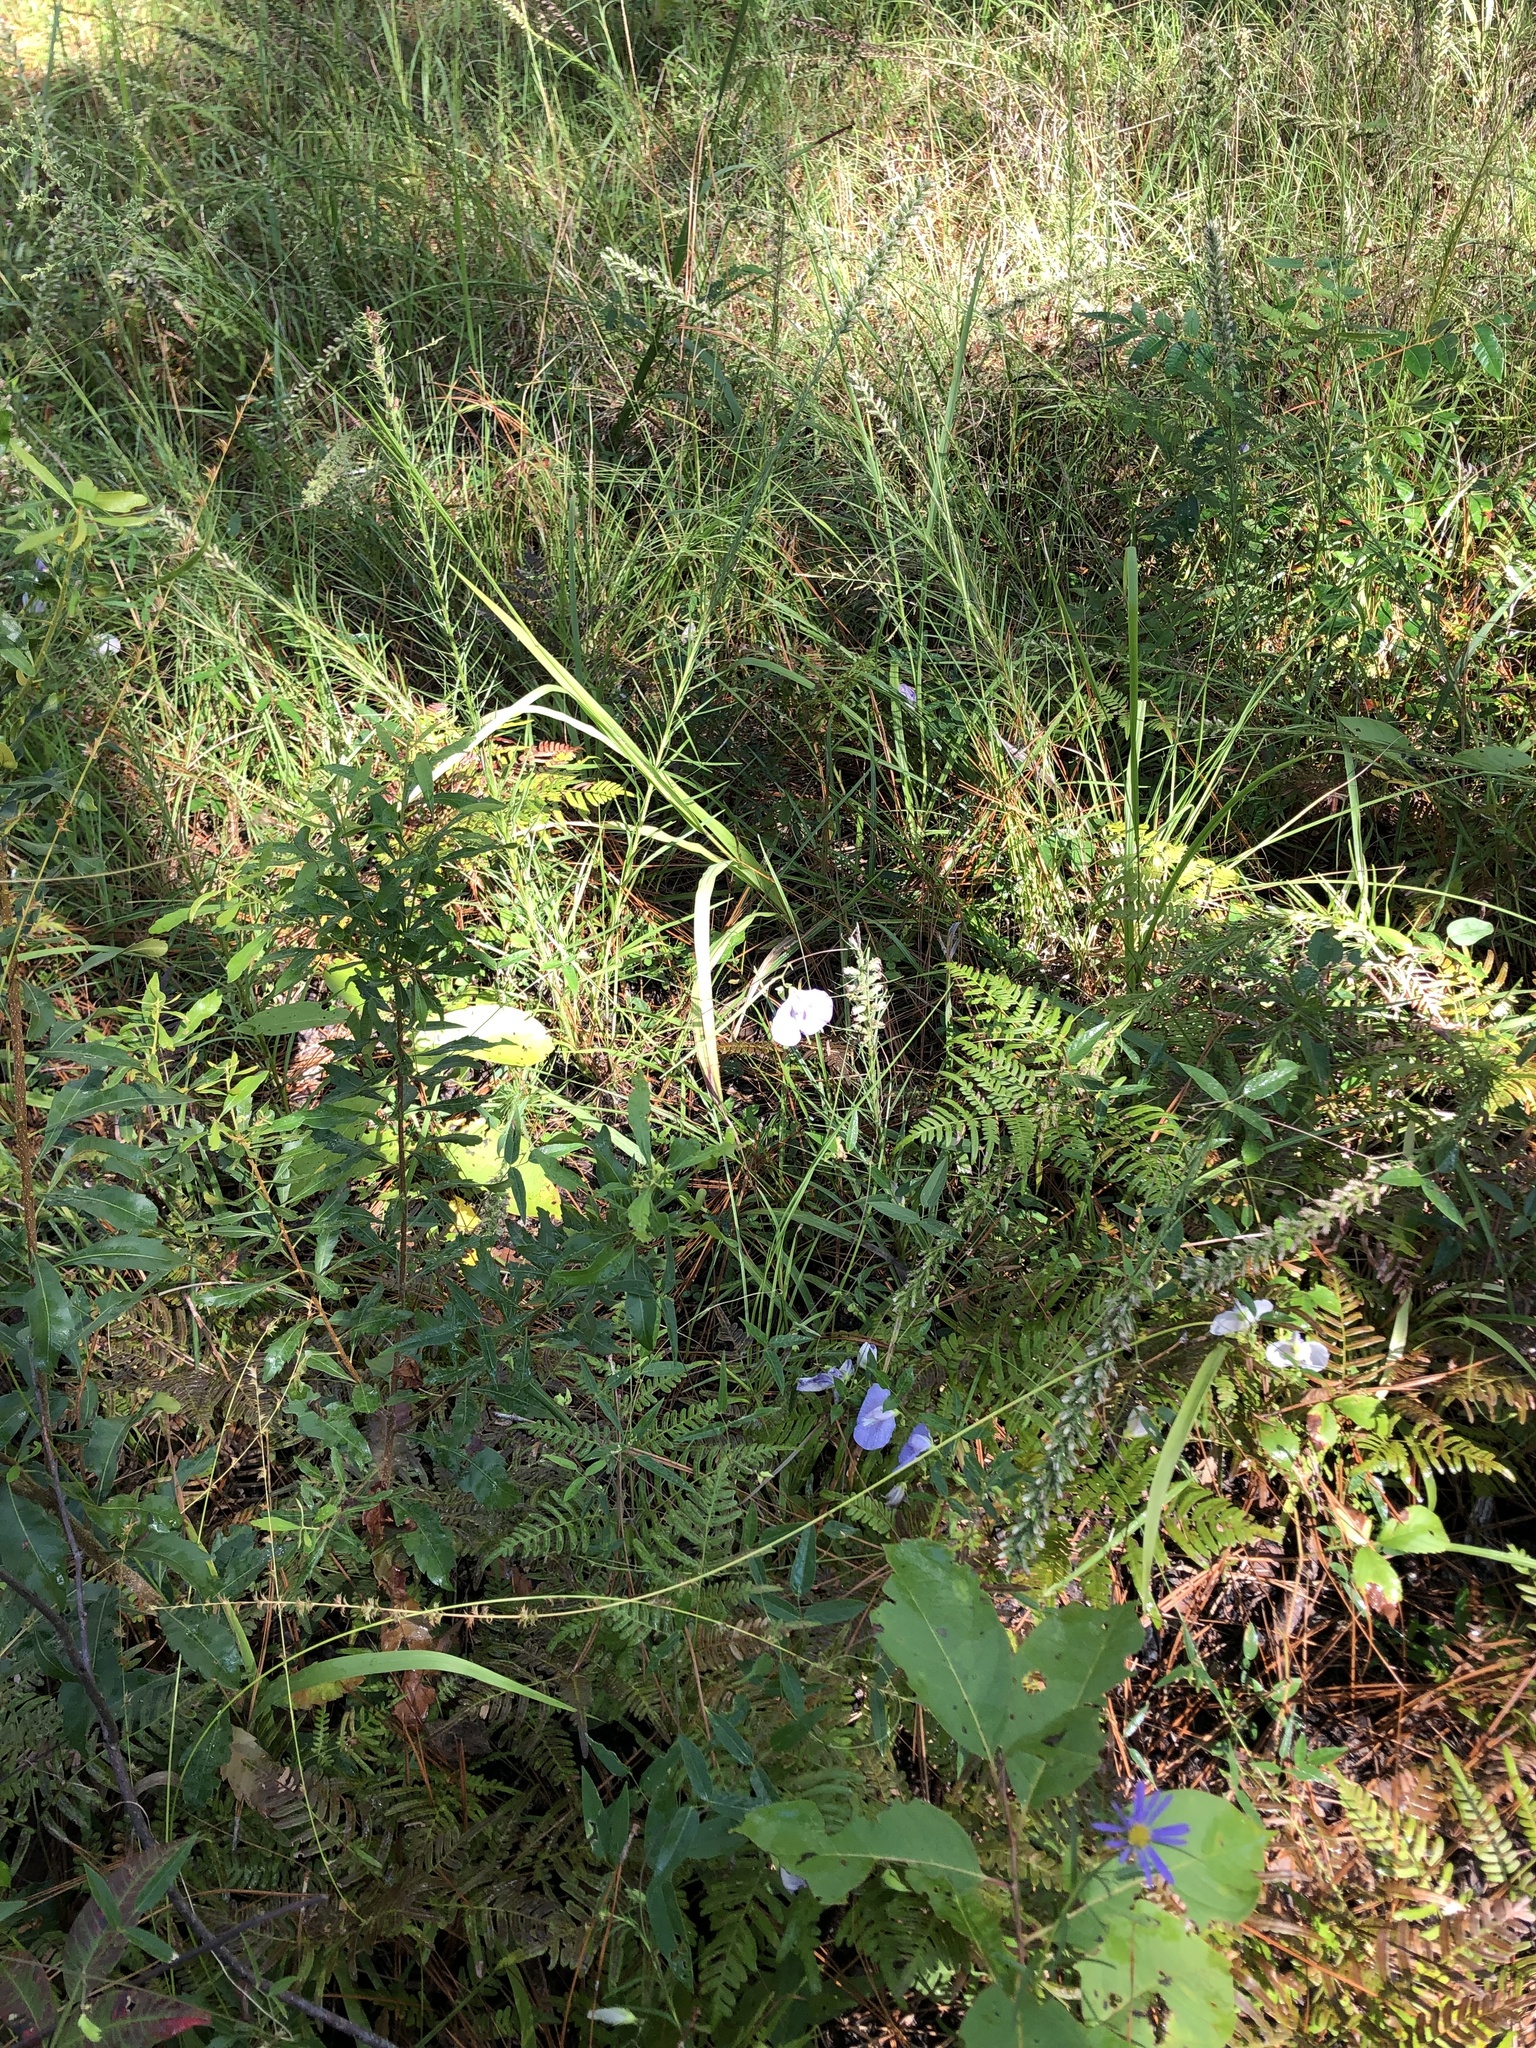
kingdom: Plantae
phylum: Tracheophyta
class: Magnoliopsida
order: Fabales
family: Fabaceae
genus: Centrosema
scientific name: Centrosema virginianum
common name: Butterfly-pea
